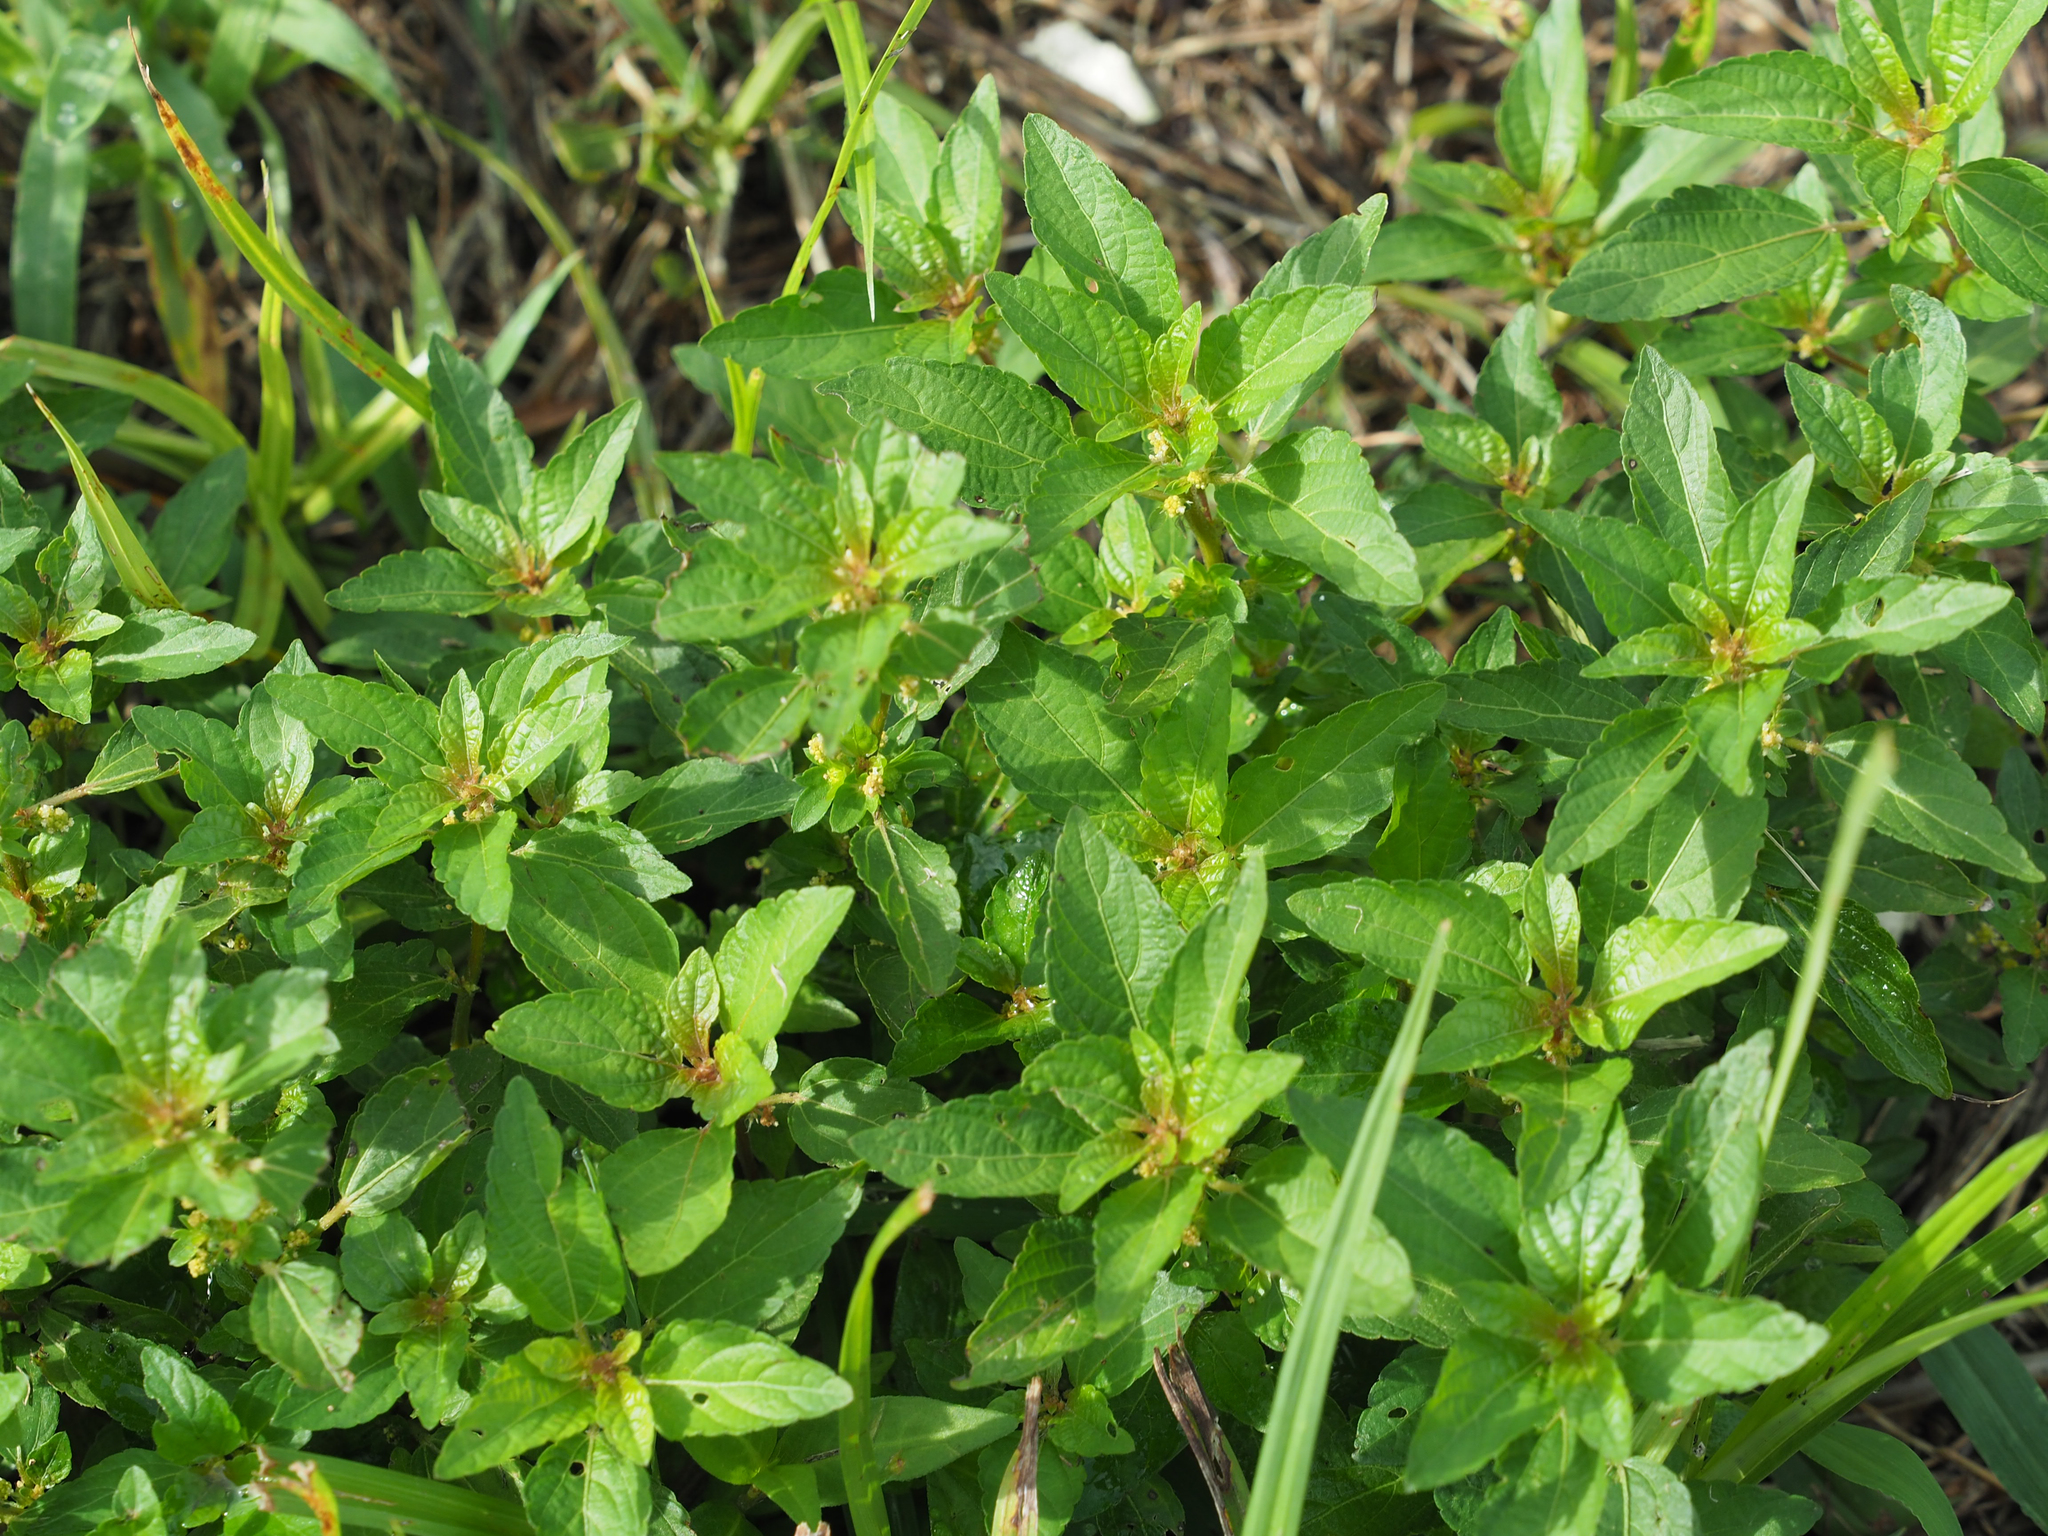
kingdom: Plantae
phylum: Tracheophyta
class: Magnoliopsida
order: Malpighiales
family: Euphorbiaceae
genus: Acalypha
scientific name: Acalypha rhomboidea
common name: Rhombic copperleaf
